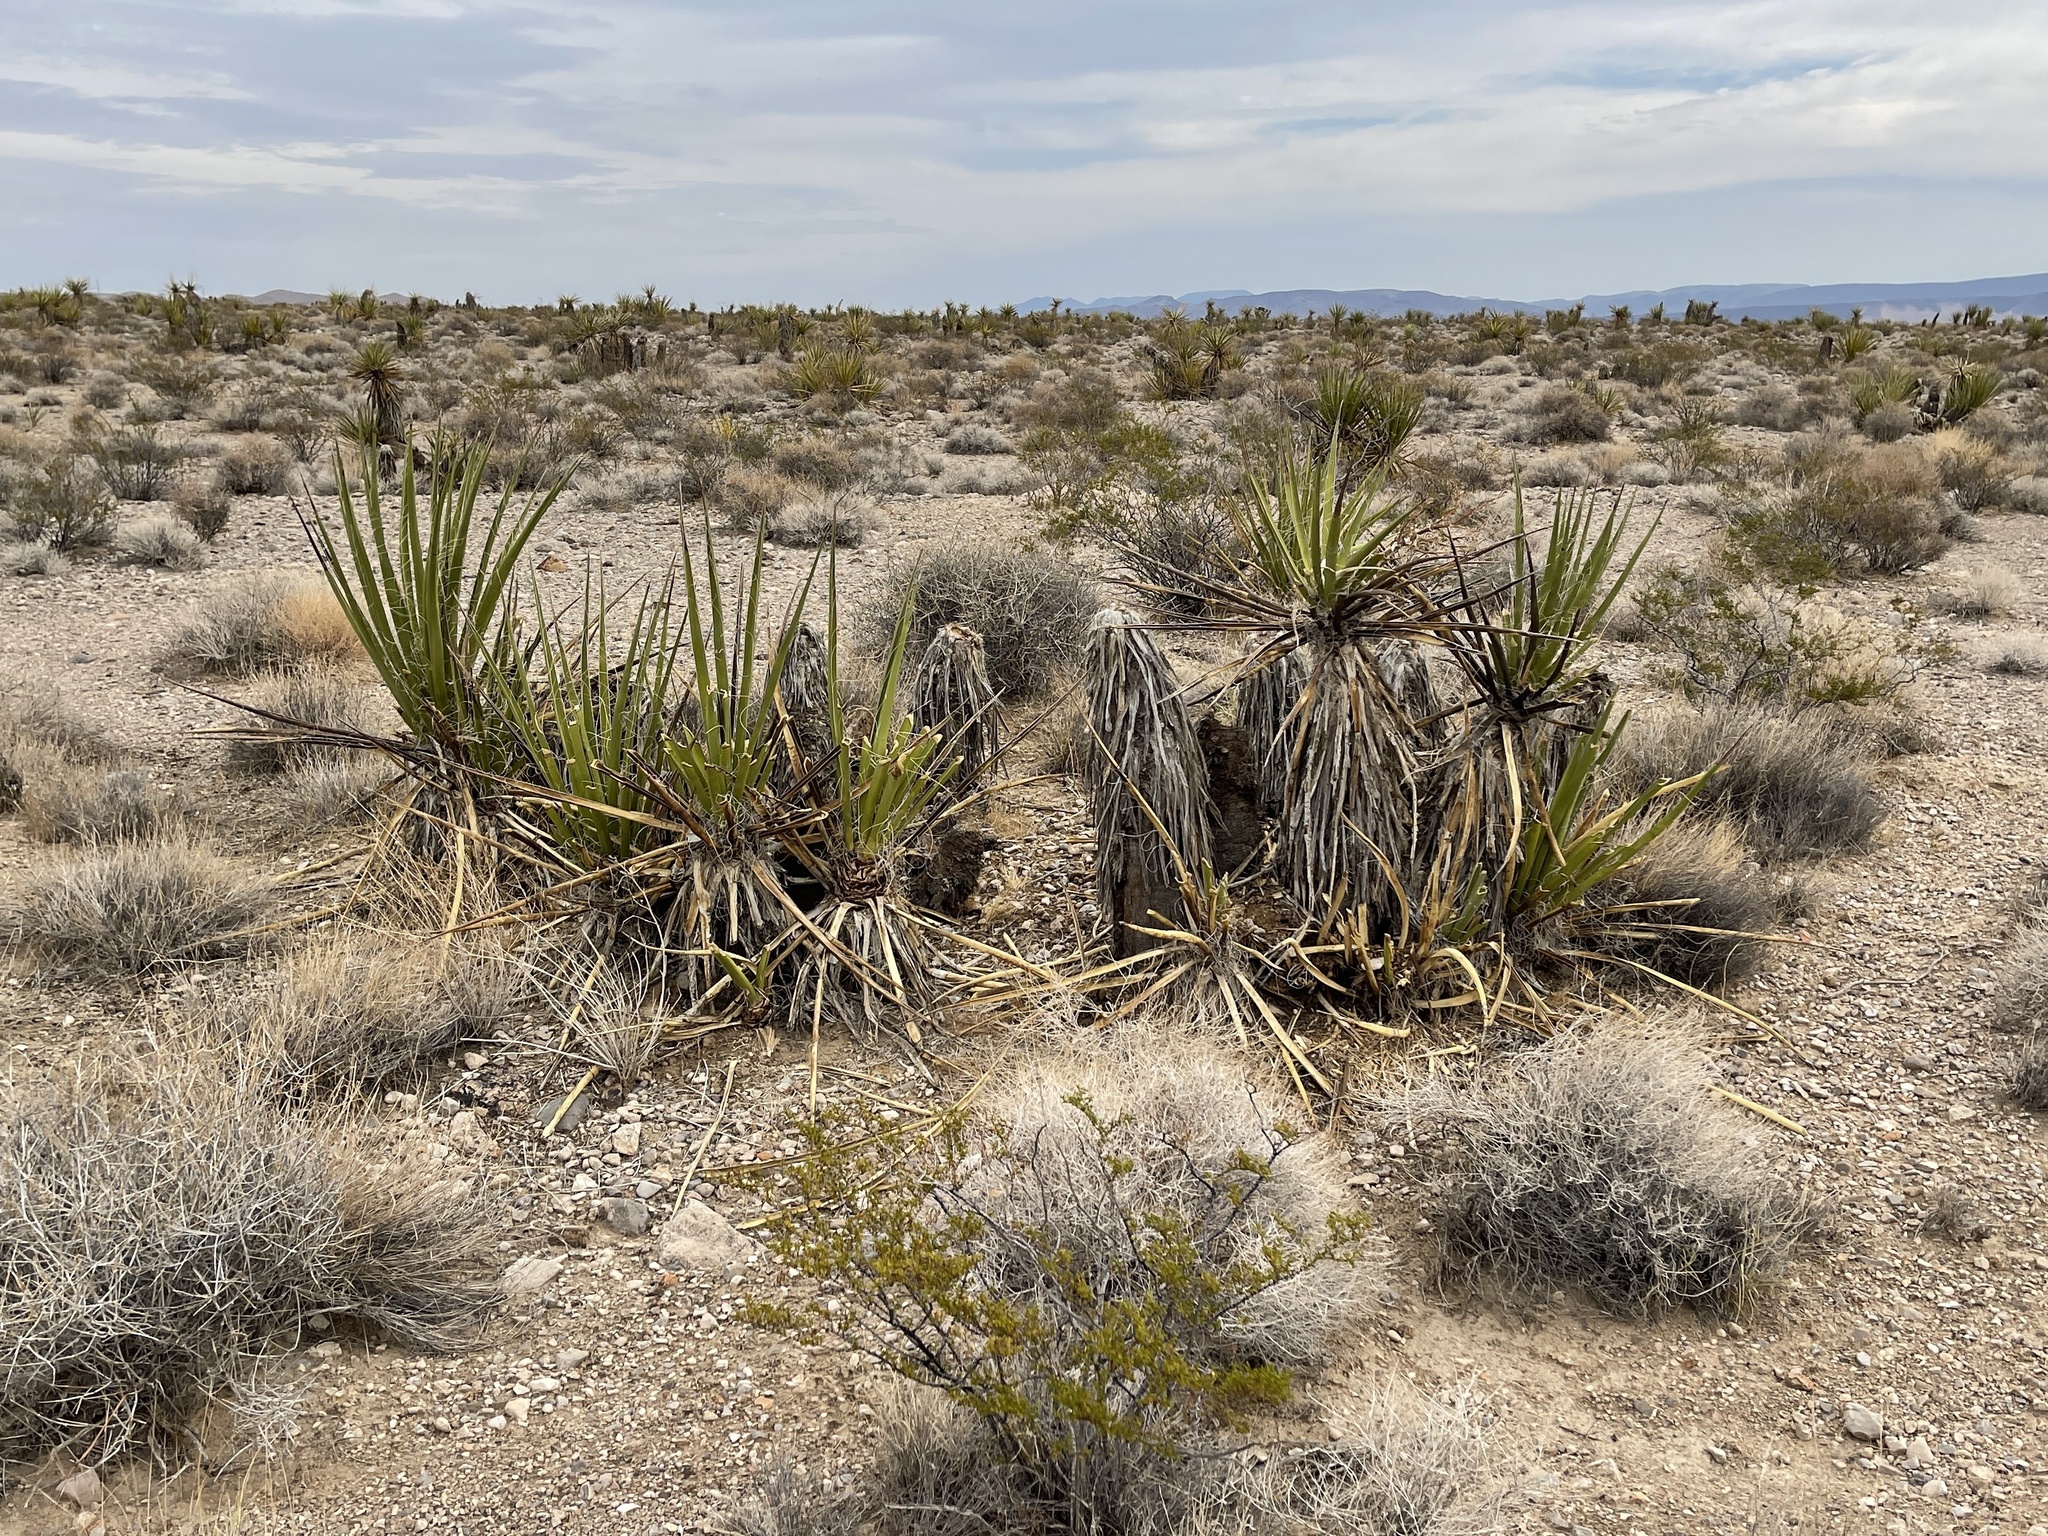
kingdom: Plantae
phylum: Tracheophyta
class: Liliopsida
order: Asparagales
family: Asparagaceae
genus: Yucca
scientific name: Yucca schidigera
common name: Mojave yucca
